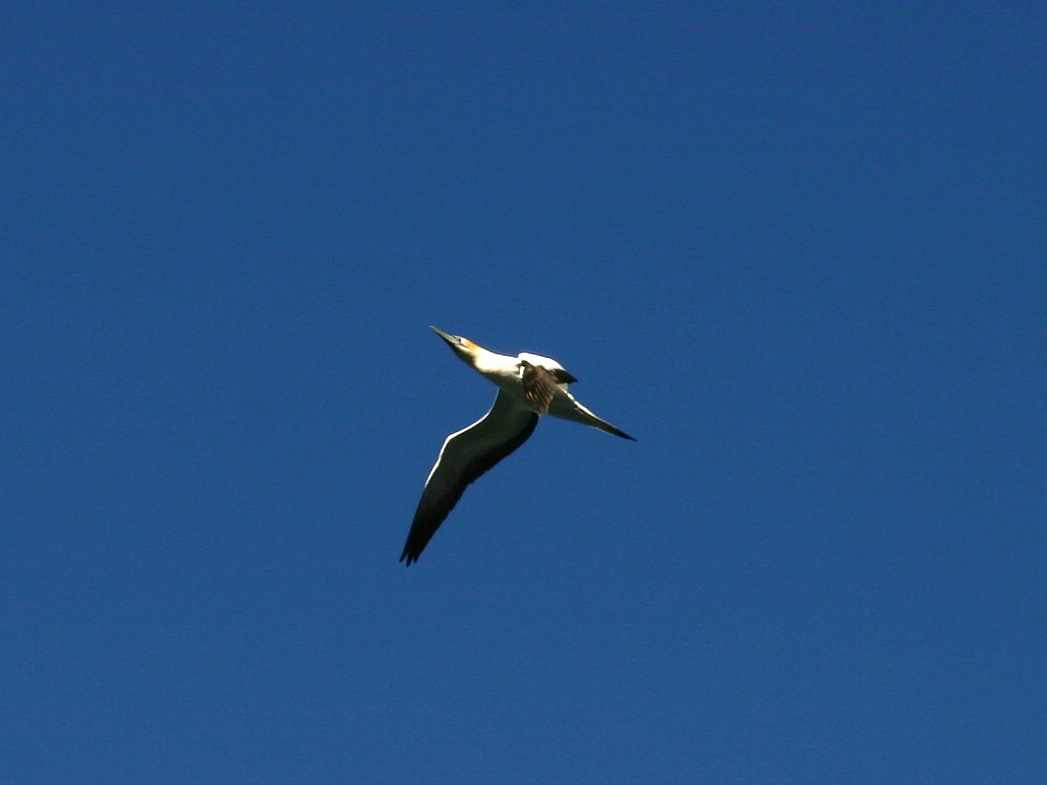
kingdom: Animalia
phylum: Chordata
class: Aves
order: Suliformes
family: Sulidae
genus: Morus
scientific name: Morus serrator
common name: Australasian gannet
